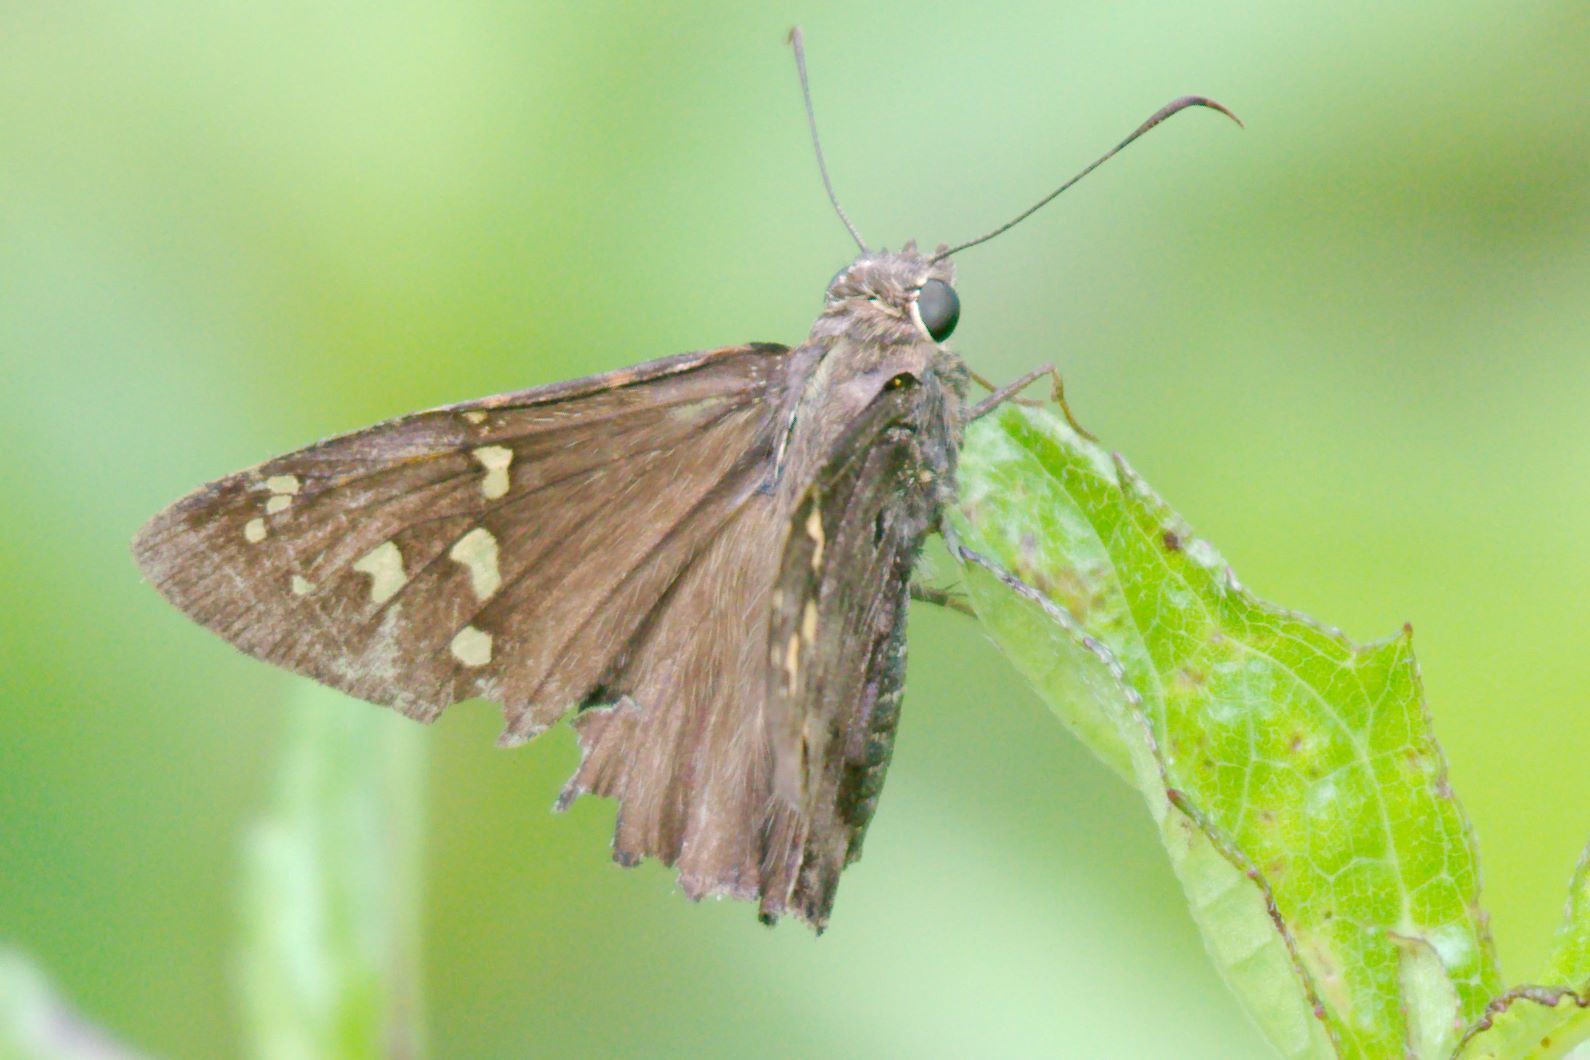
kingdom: Animalia
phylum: Arthropoda
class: Insecta
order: Lepidoptera
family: Hesperiidae
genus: Thorybes
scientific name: Thorybes
